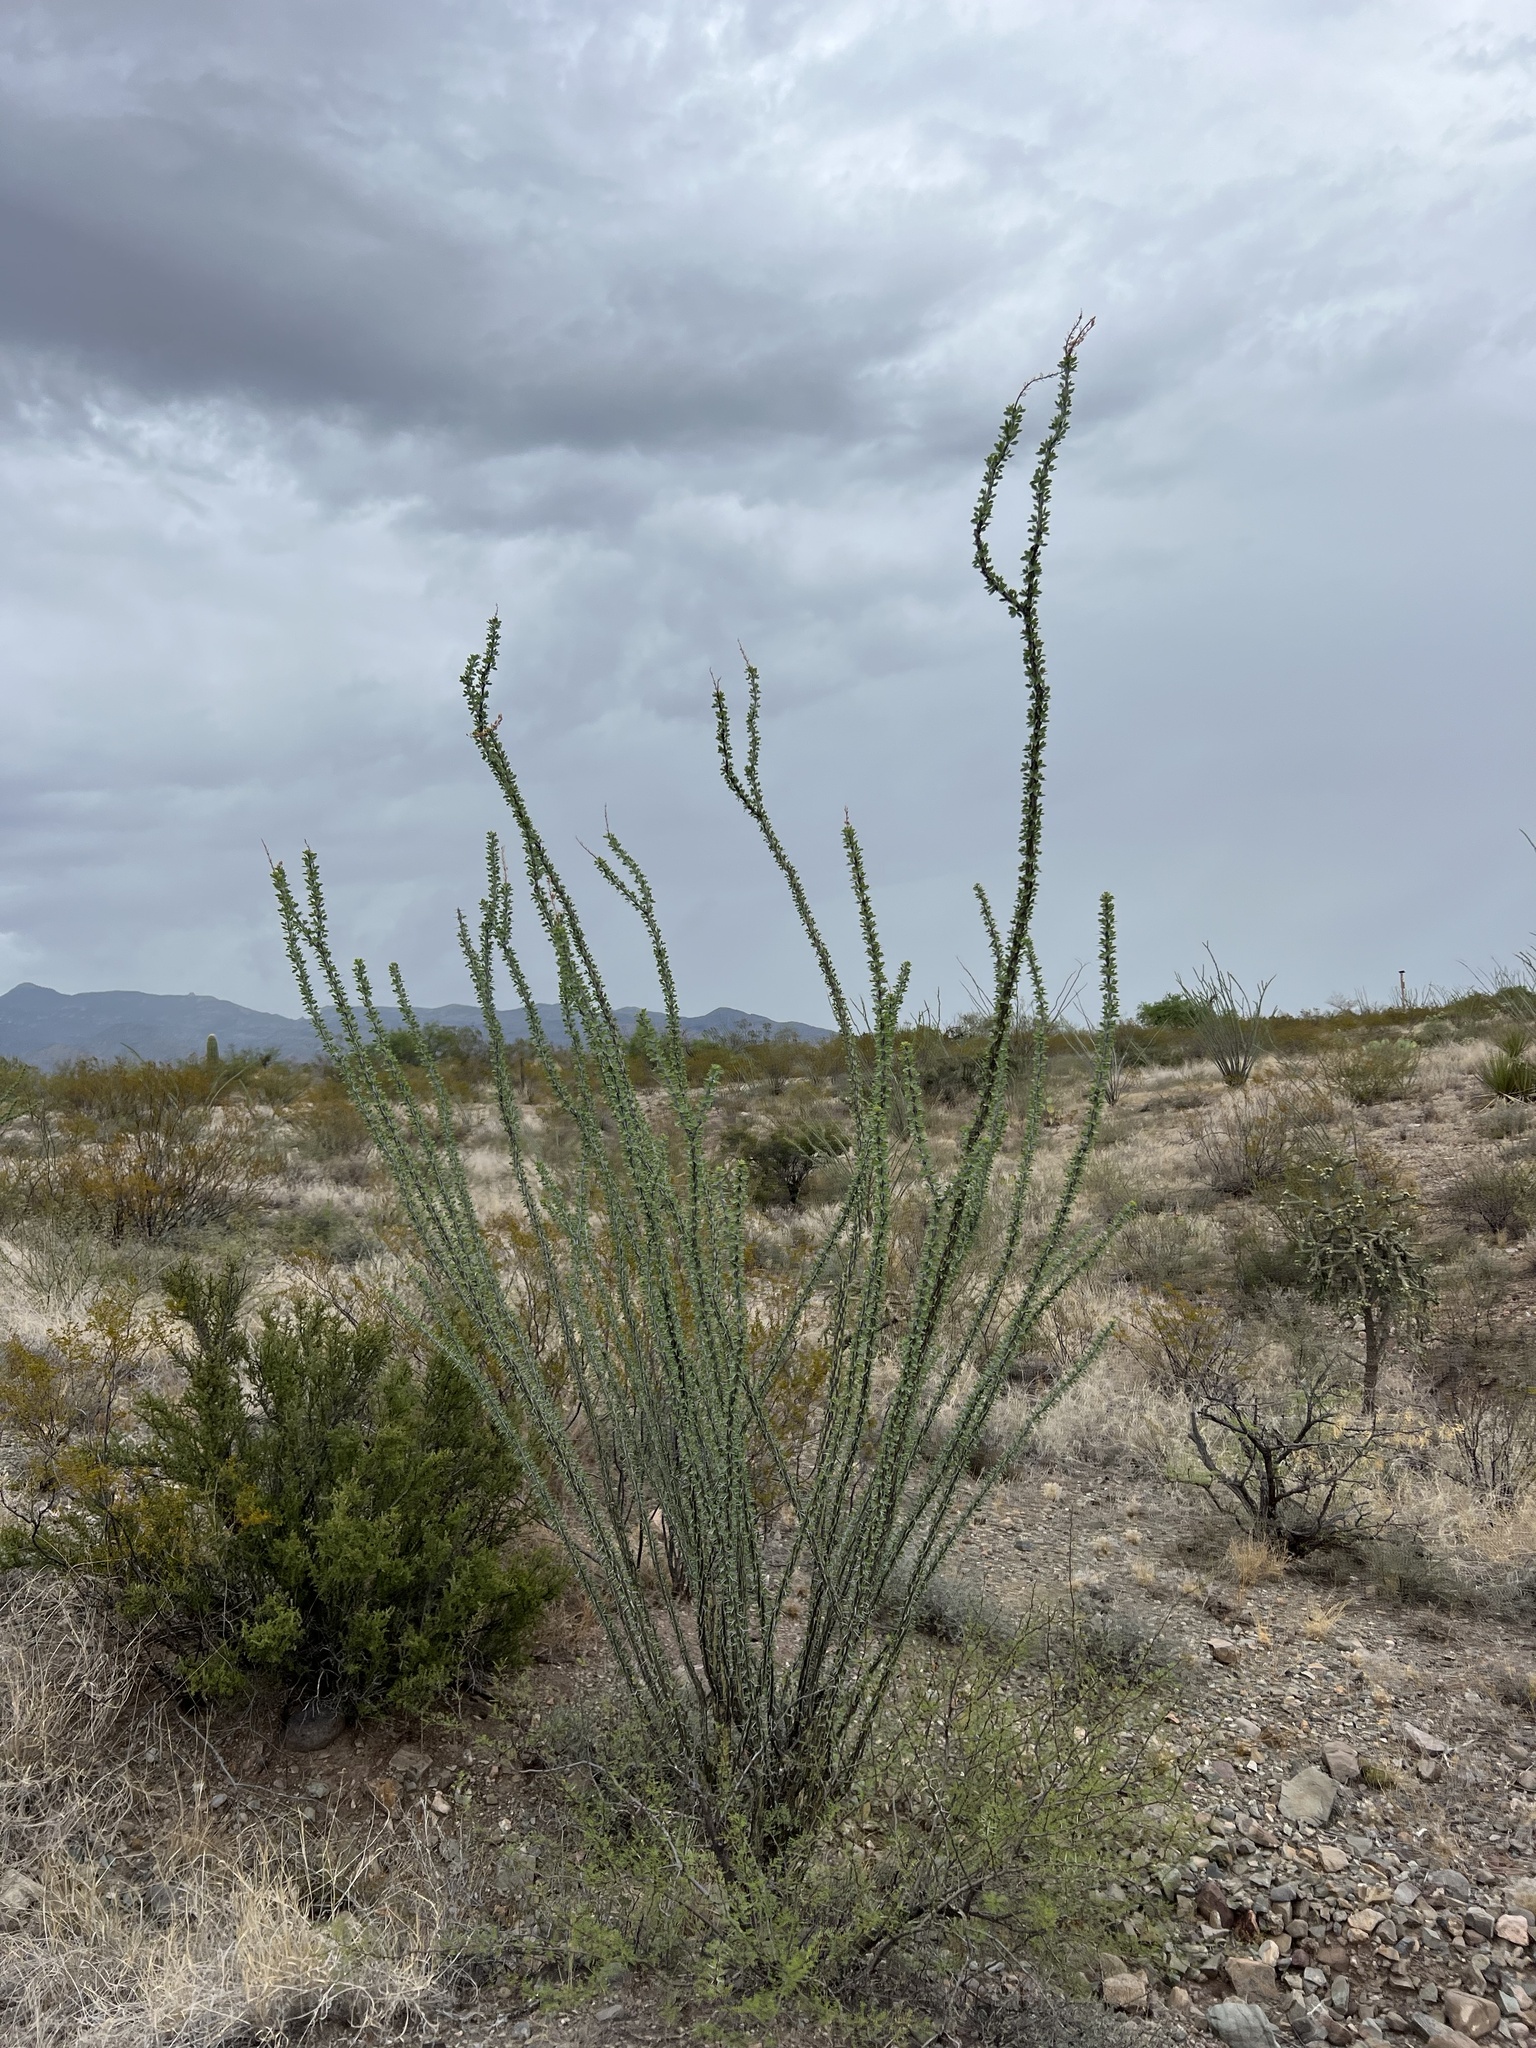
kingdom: Plantae
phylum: Tracheophyta
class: Magnoliopsida
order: Ericales
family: Fouquieriaceae
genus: Fouquieria
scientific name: Fouquieria splendens
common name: Vine-cactus
